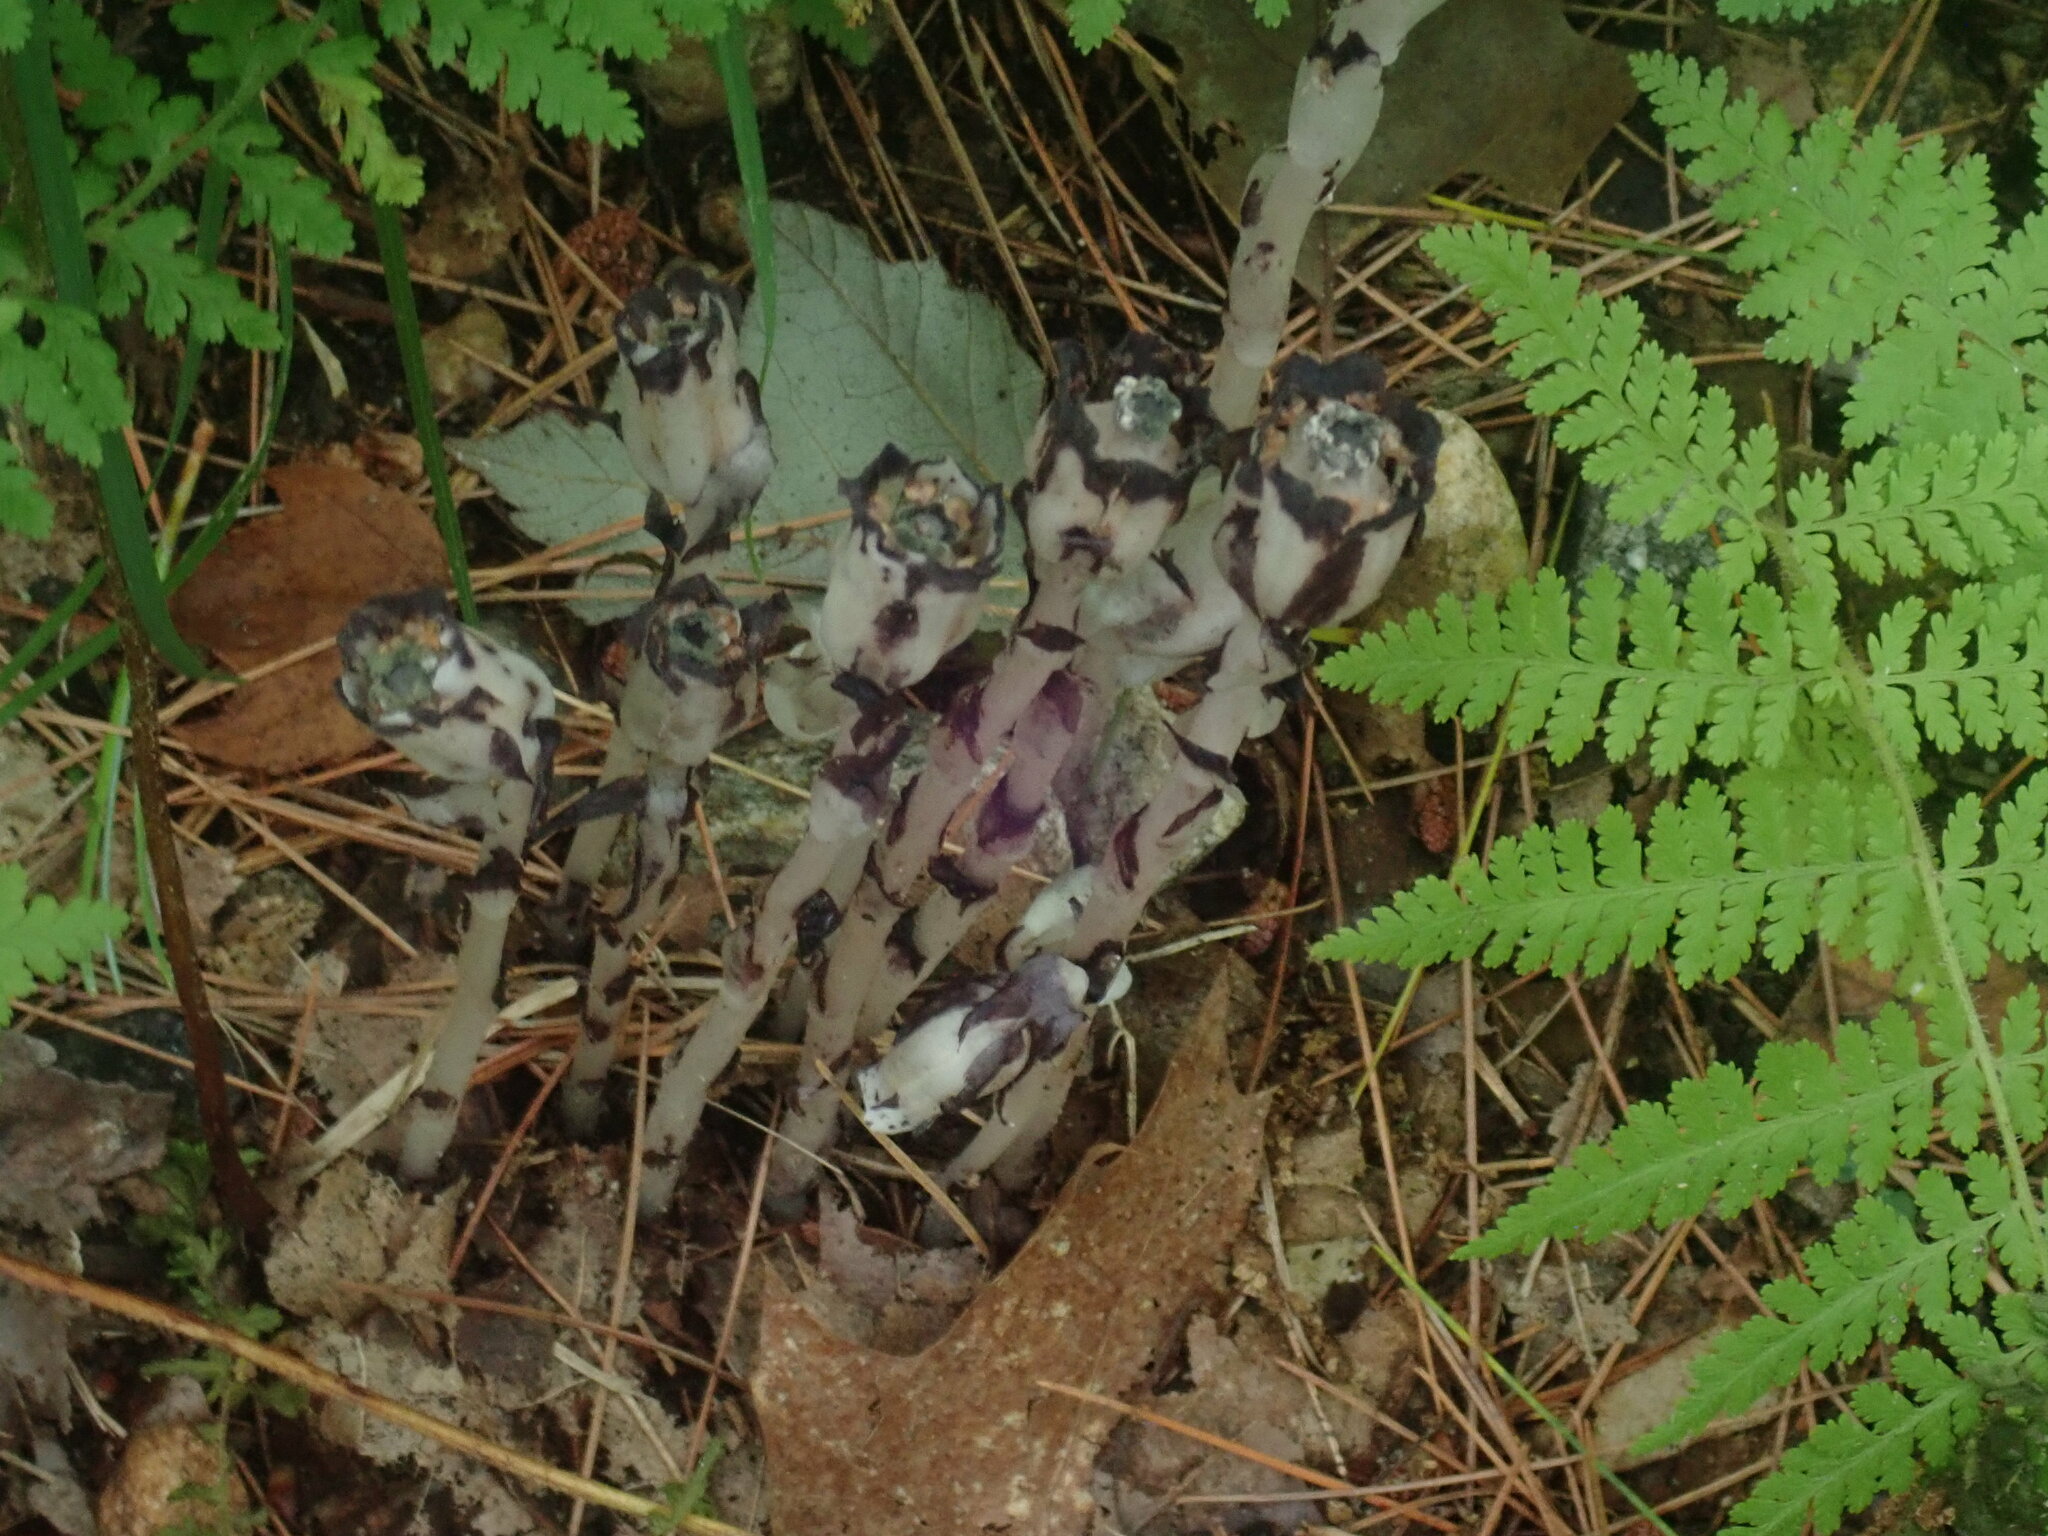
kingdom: Plantae
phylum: Tracheophyta
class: Magnoliopsida
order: Ericales
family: Ericaceae
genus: Monotropa
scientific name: Monotropa uniflora
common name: Convulsion root
